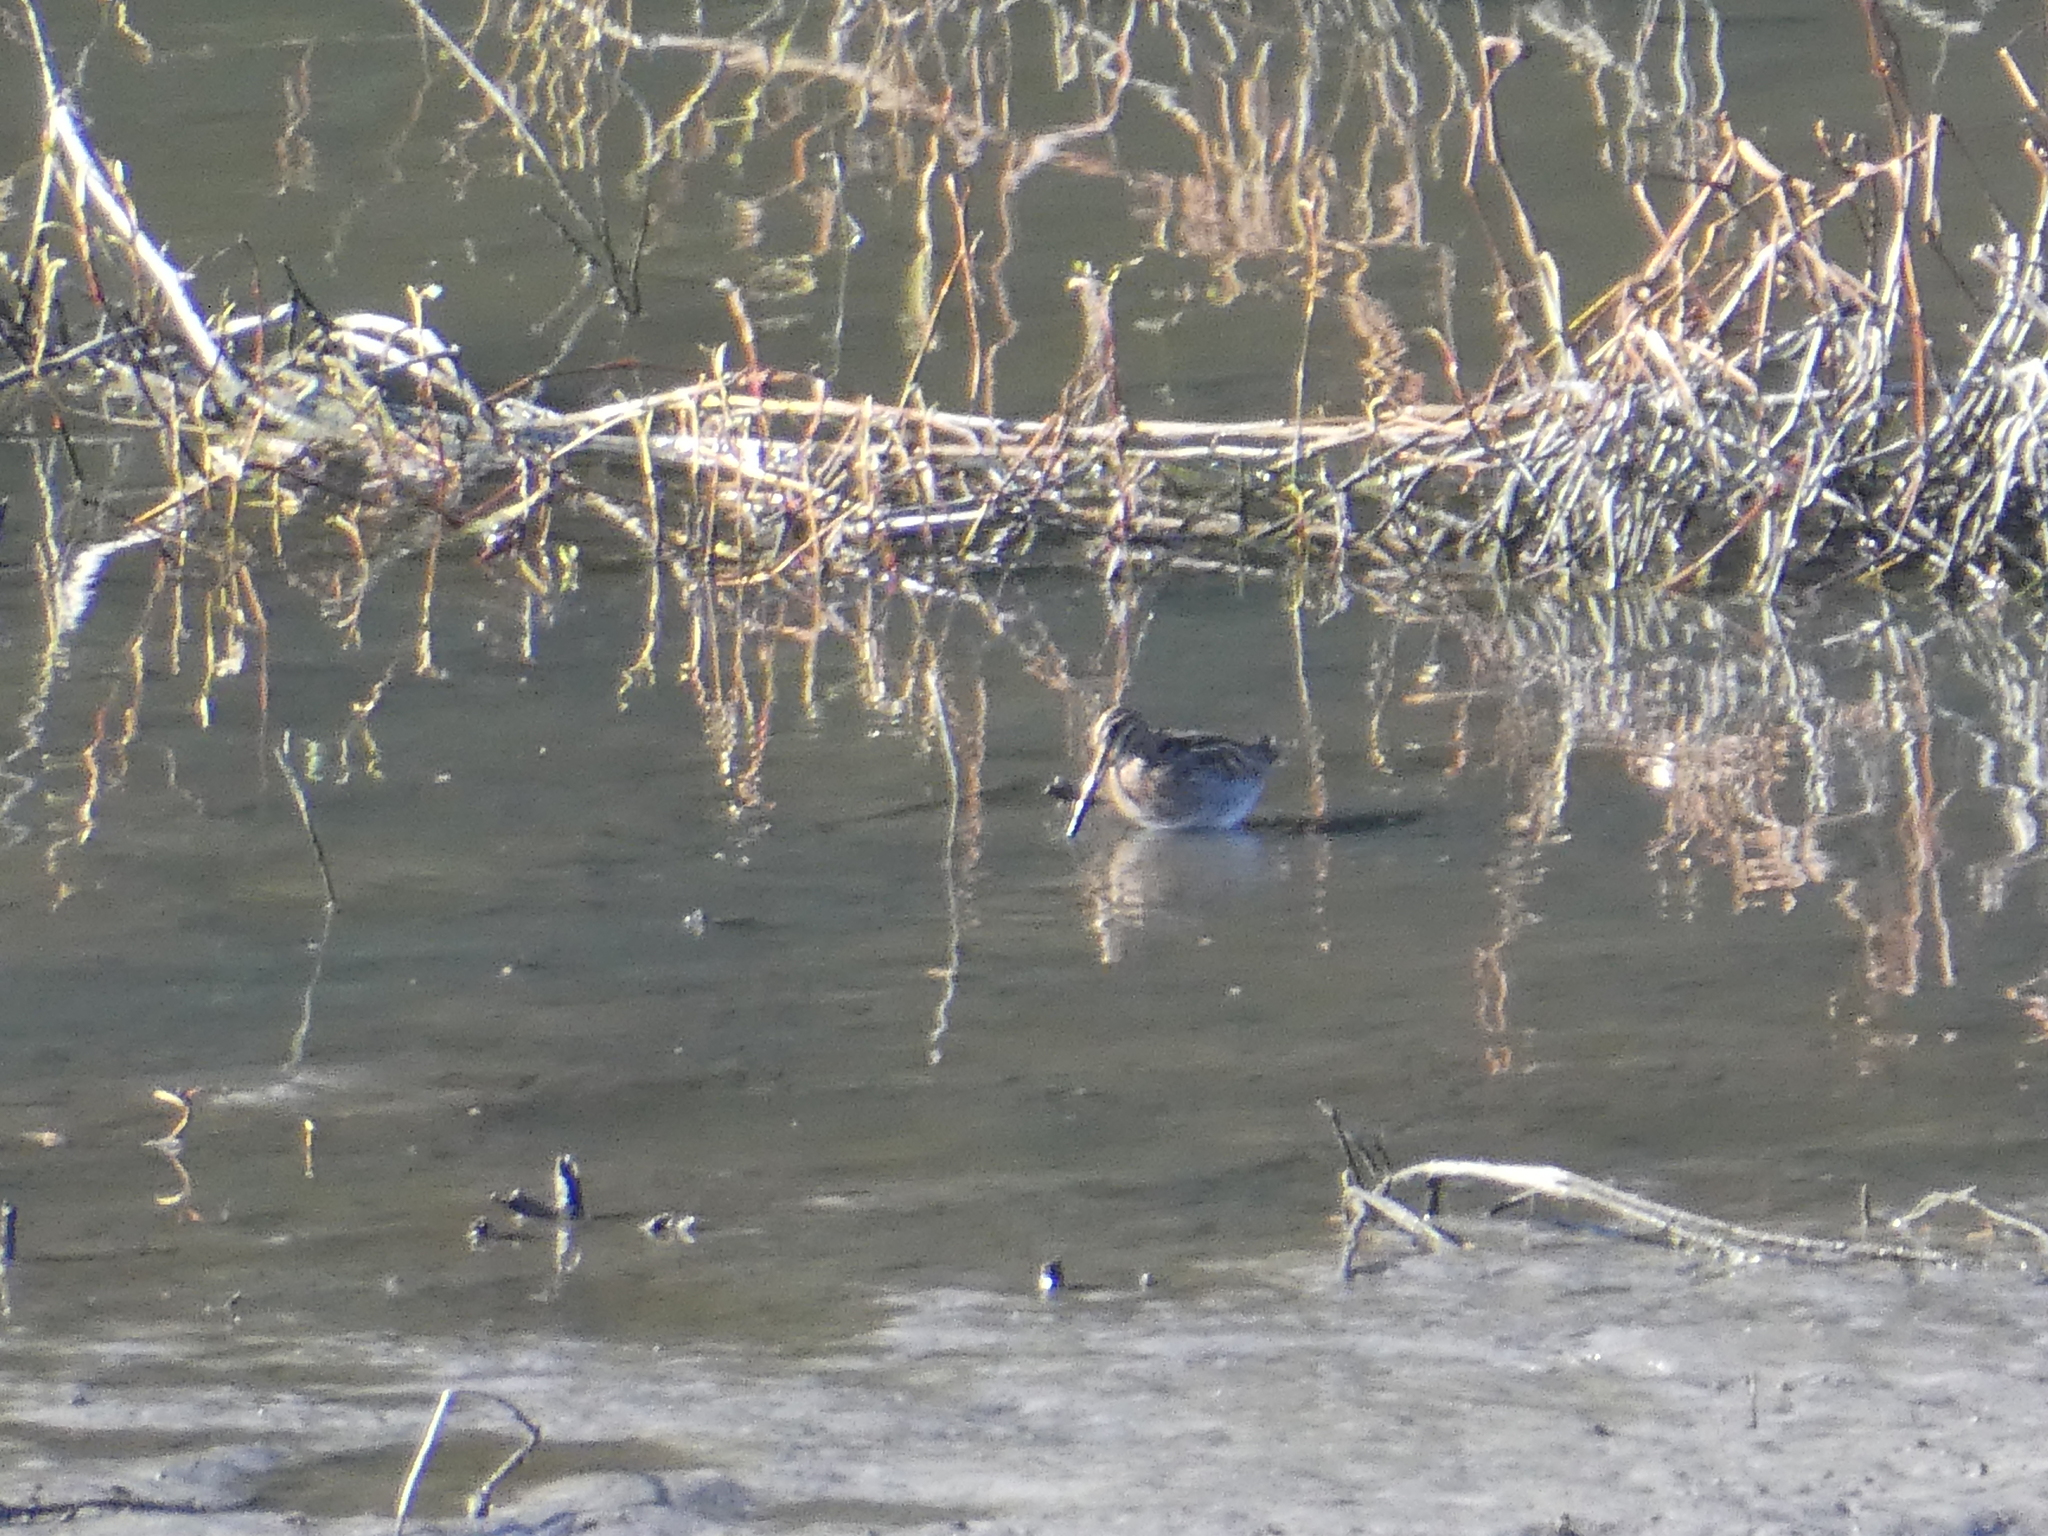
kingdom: Animalia
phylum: Chordata
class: Aves
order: Charadriiformes
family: Scolopacidae
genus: Gallinago
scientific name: Gallinago delicata
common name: Wilson's snipe
